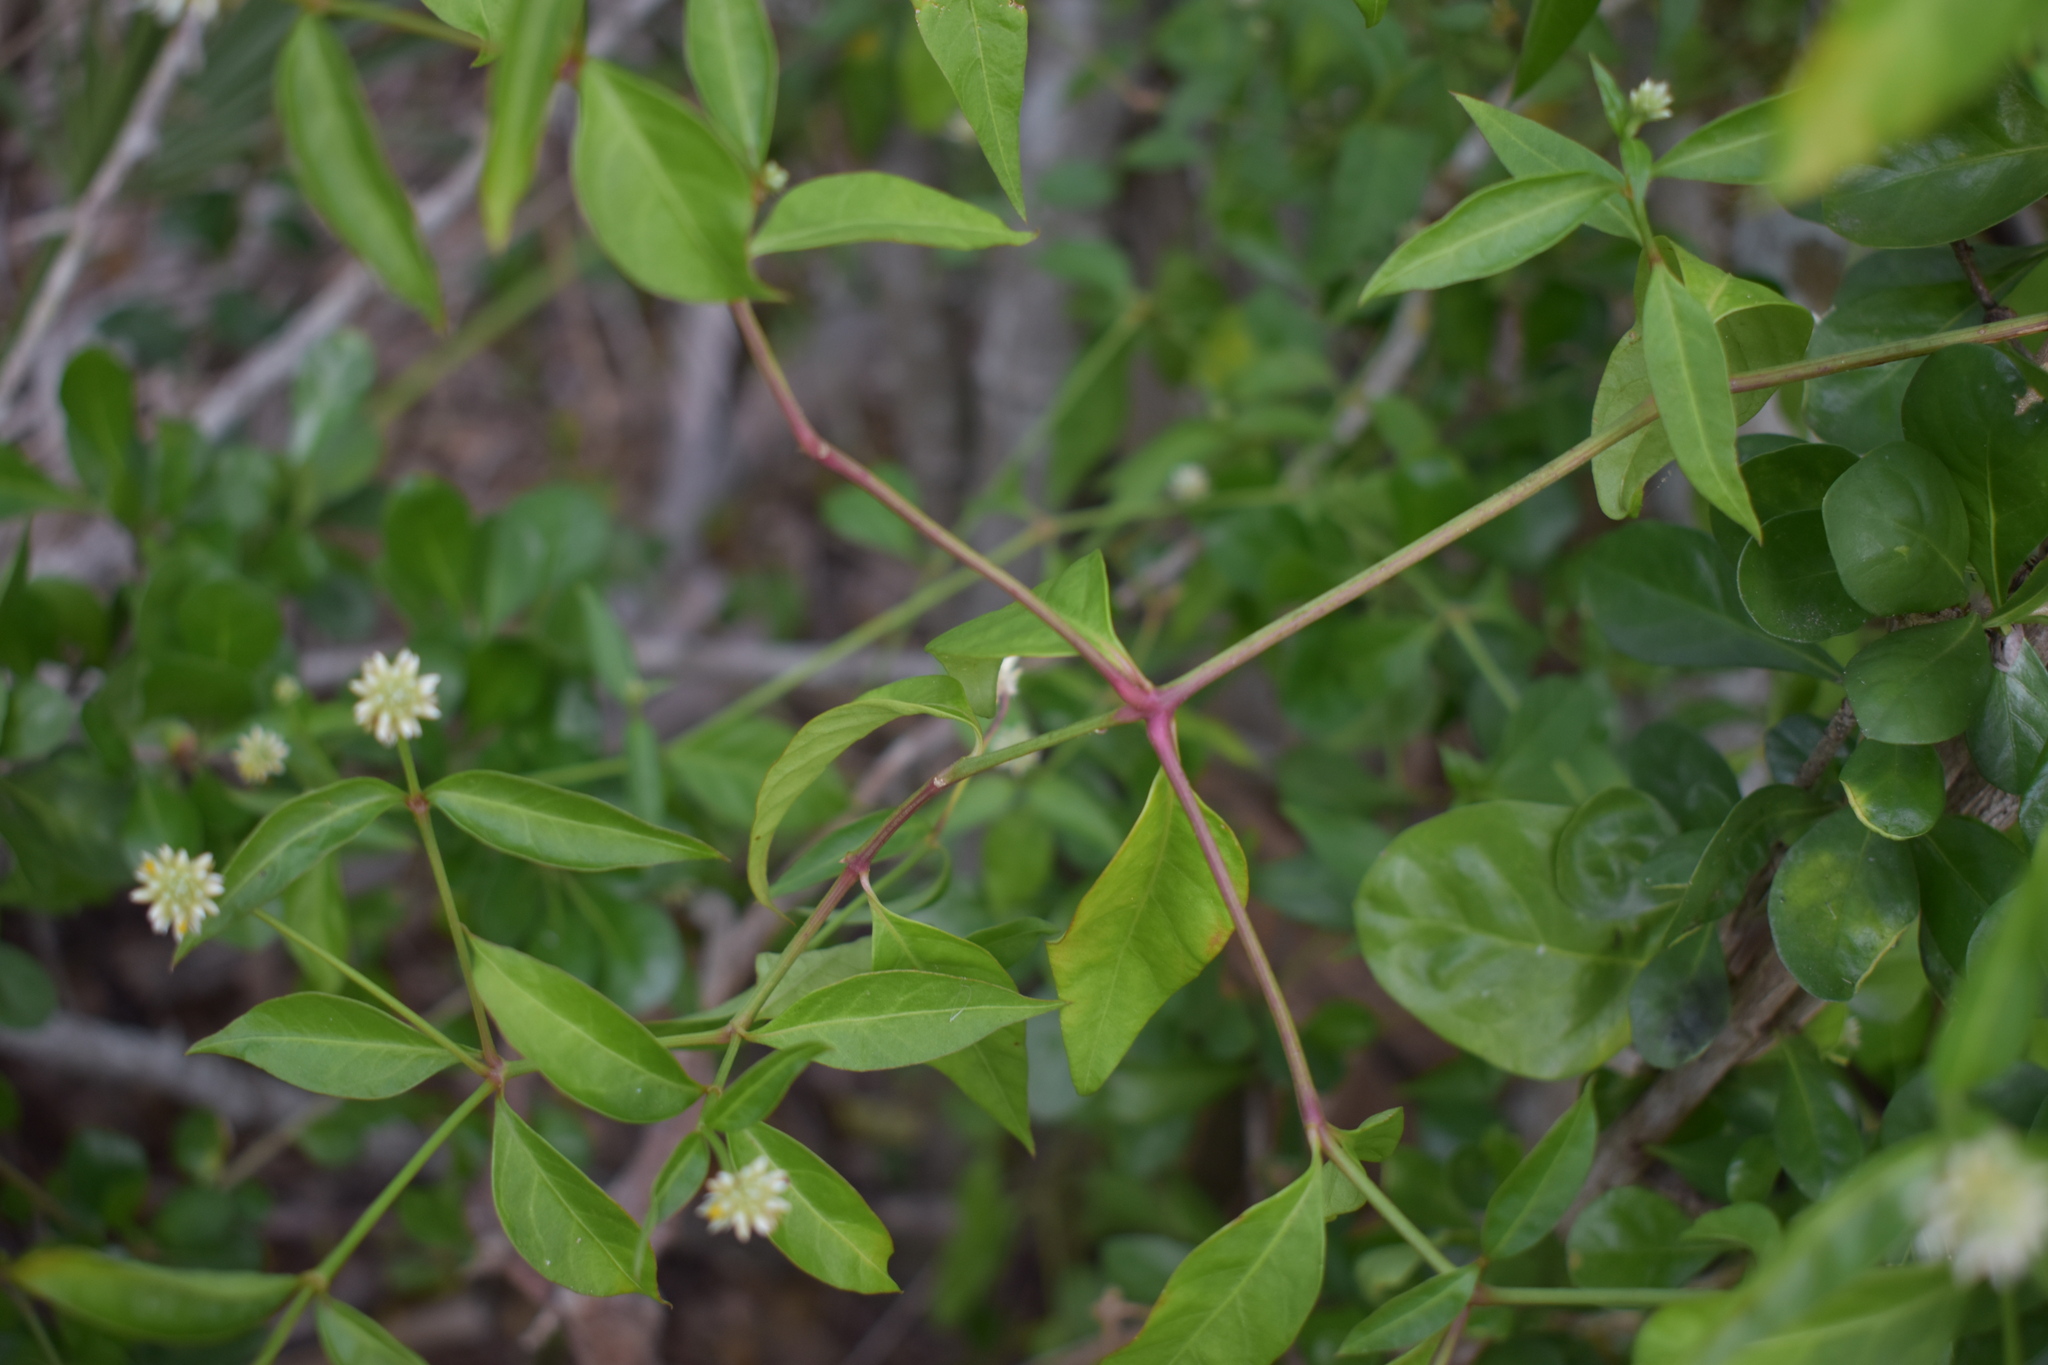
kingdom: Plantae
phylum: Tracheophyta
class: Magnoliopsida
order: Caryophyllales
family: Amaranthaceae
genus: Alternanthera
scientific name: Alternanthera flavescens
